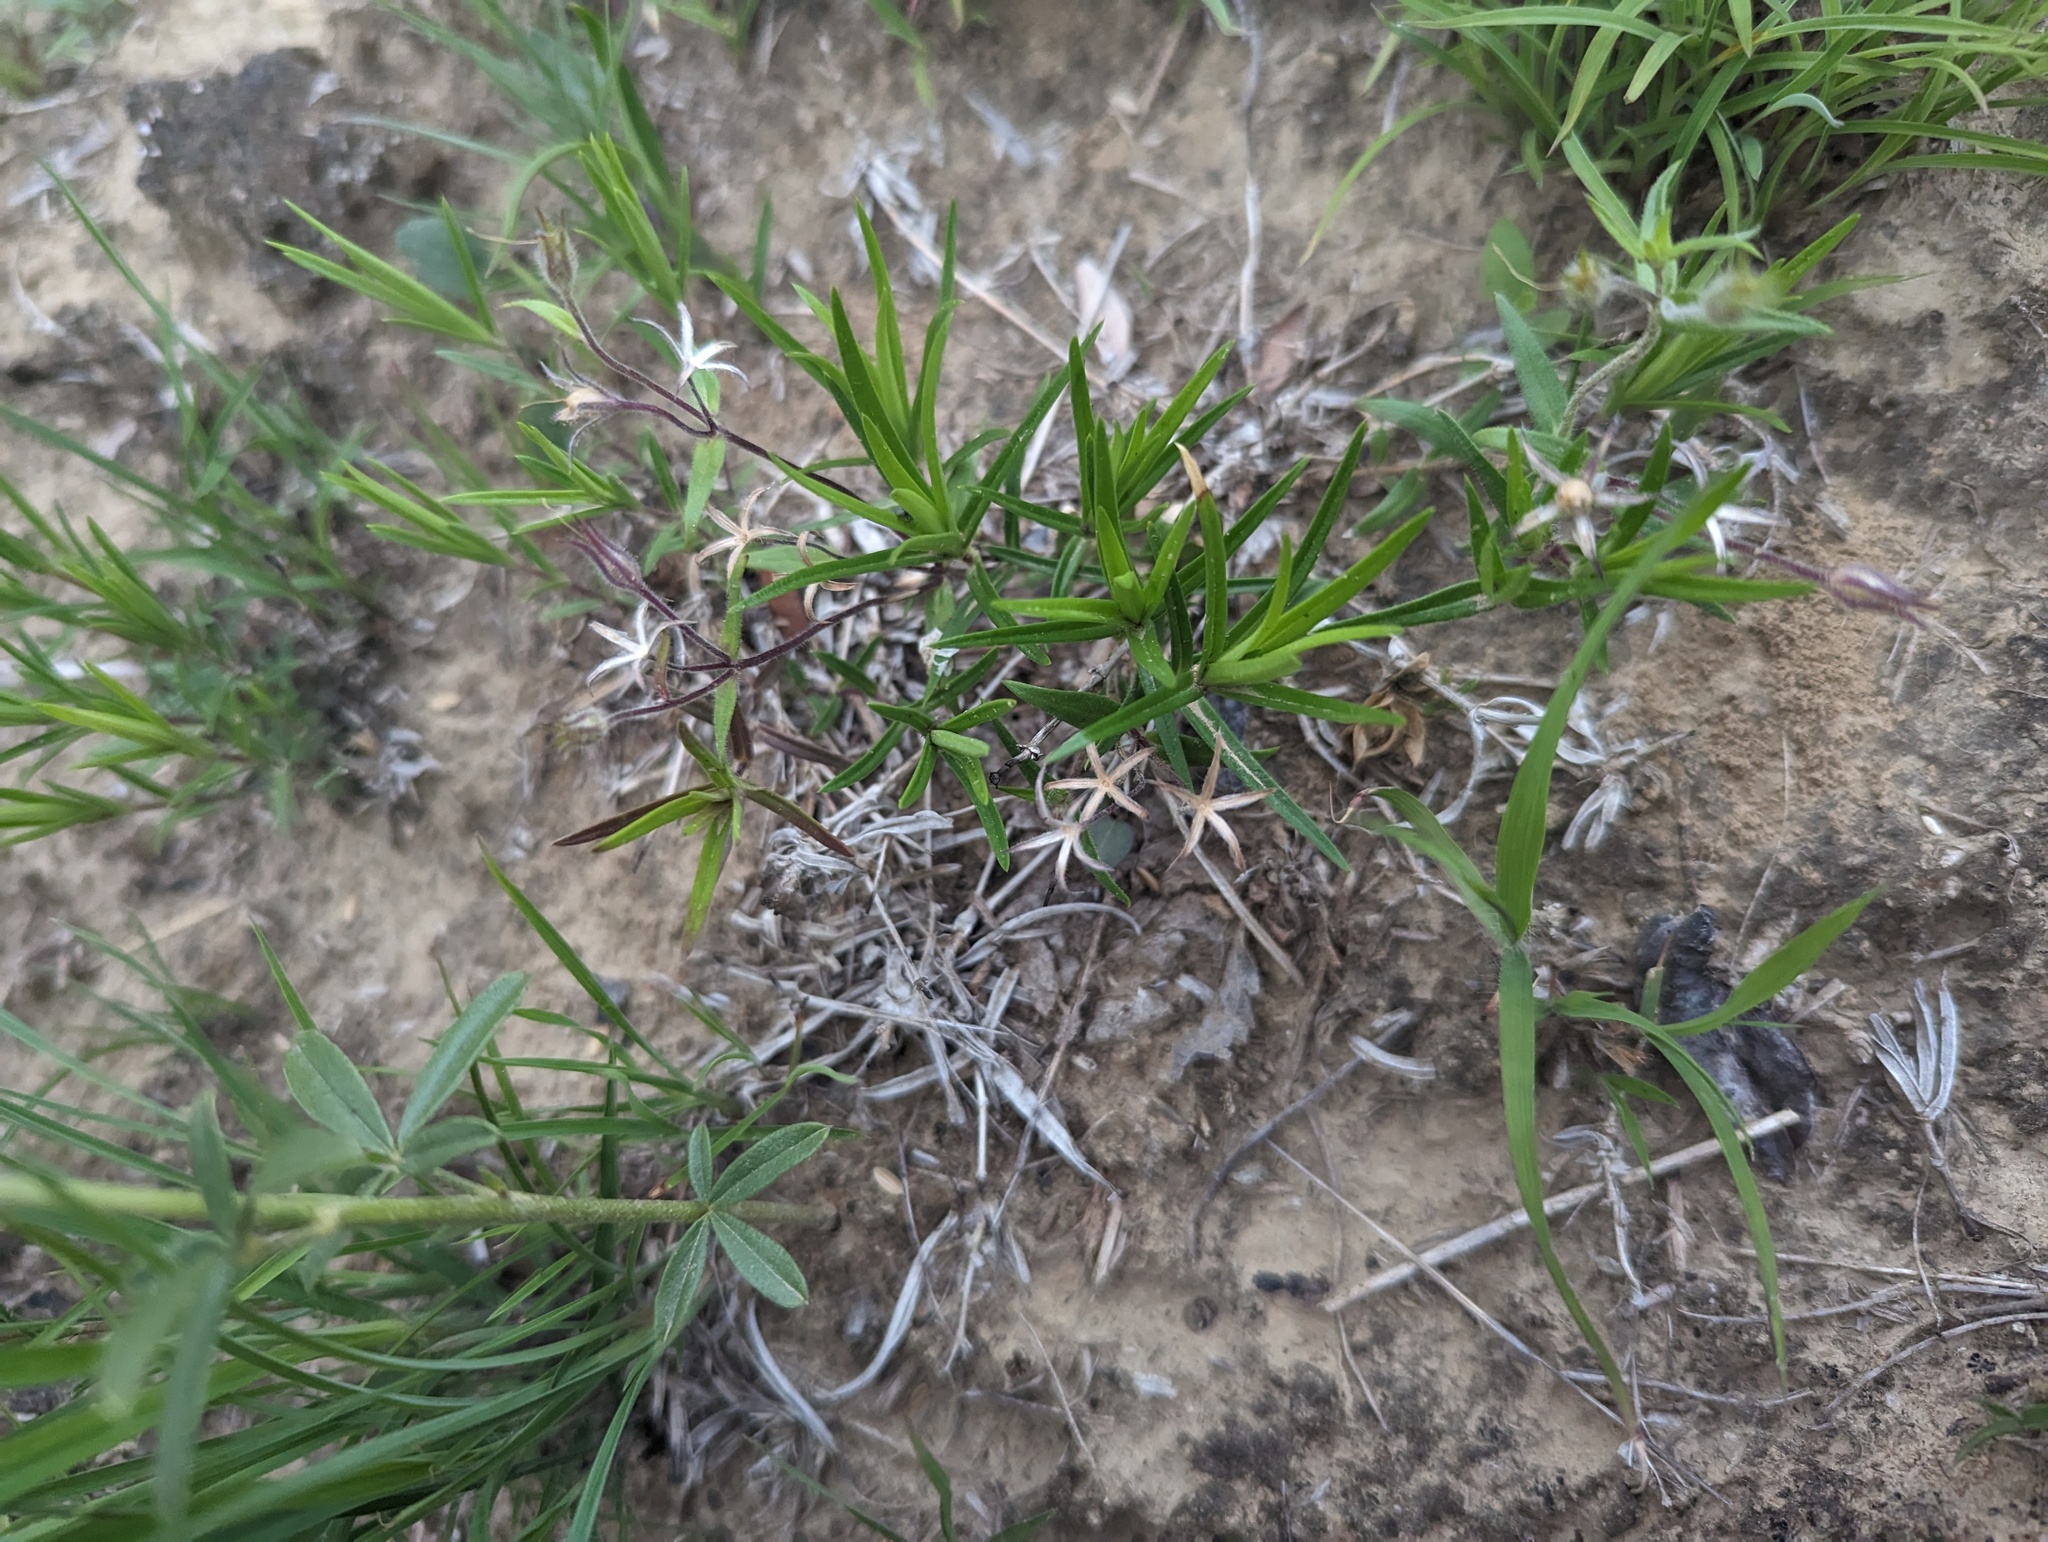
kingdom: Plantae
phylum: Tracheophyta
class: Magnoliopsida
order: Ericales
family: Polemoniaceae
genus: Phlox
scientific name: Phlox bifida
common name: Sand phlox
